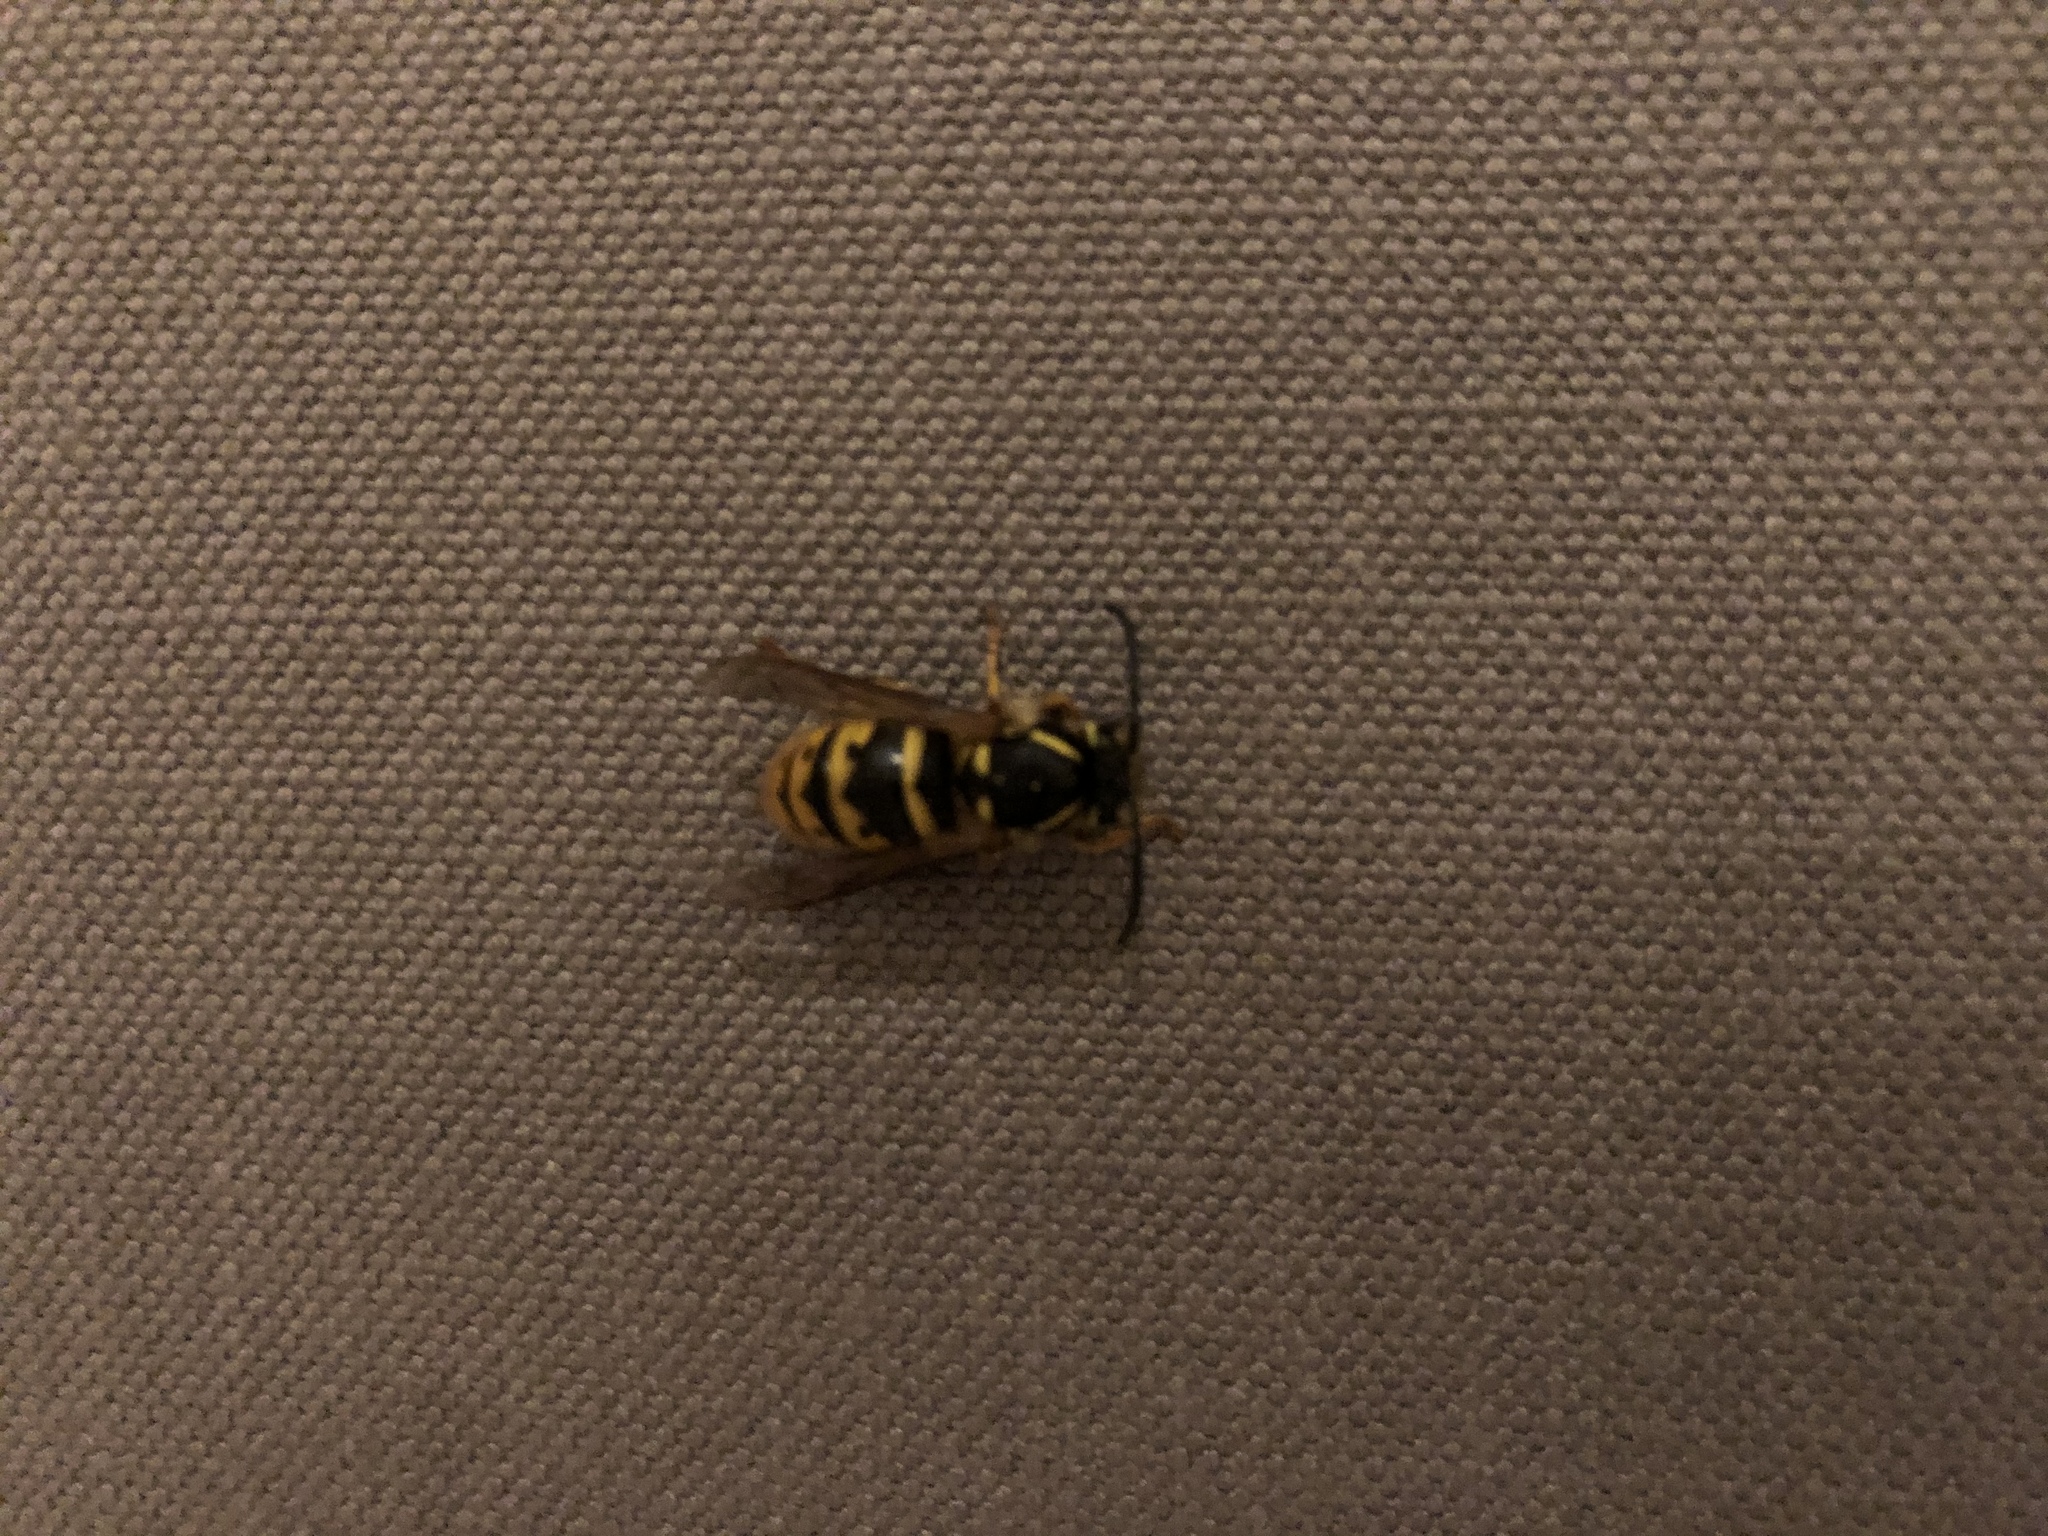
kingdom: Animalia
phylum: Arthropoda
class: Insecta
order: Hymenoptera
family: Vespidae
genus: Vespula
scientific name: Vespula vulgaris
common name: Common wasp
